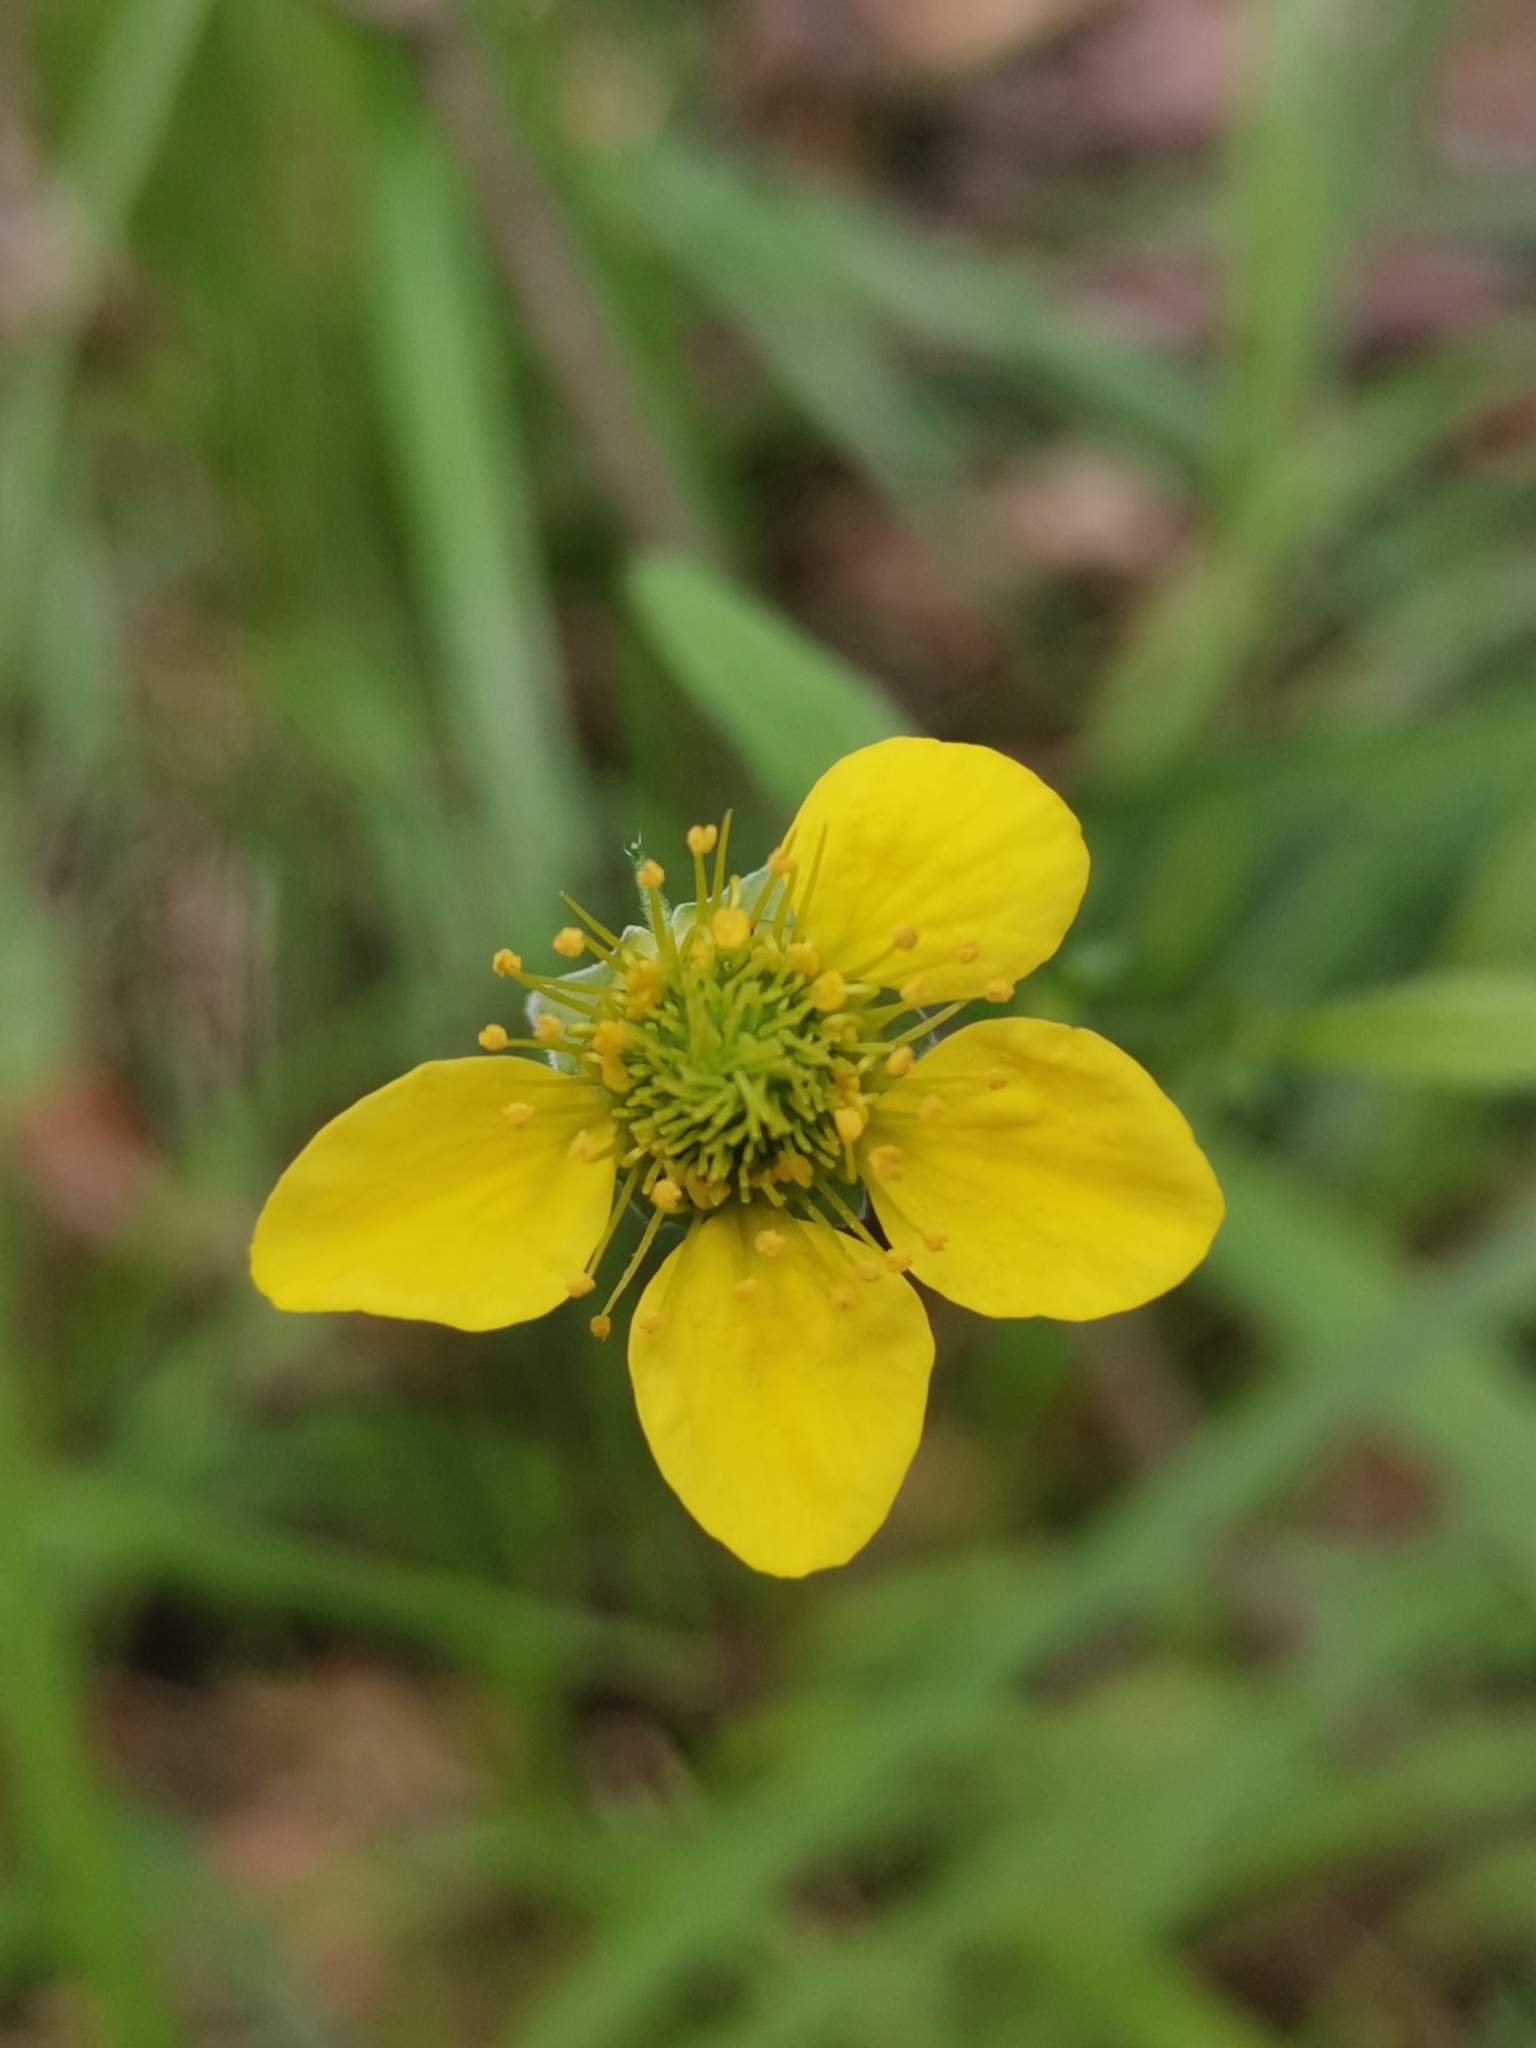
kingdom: Plantae
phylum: Tracheophyta
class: Magnoliopsida
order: Rosales
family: Rosaceae
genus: Geum
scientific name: Geum urbanum
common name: Wood avens
